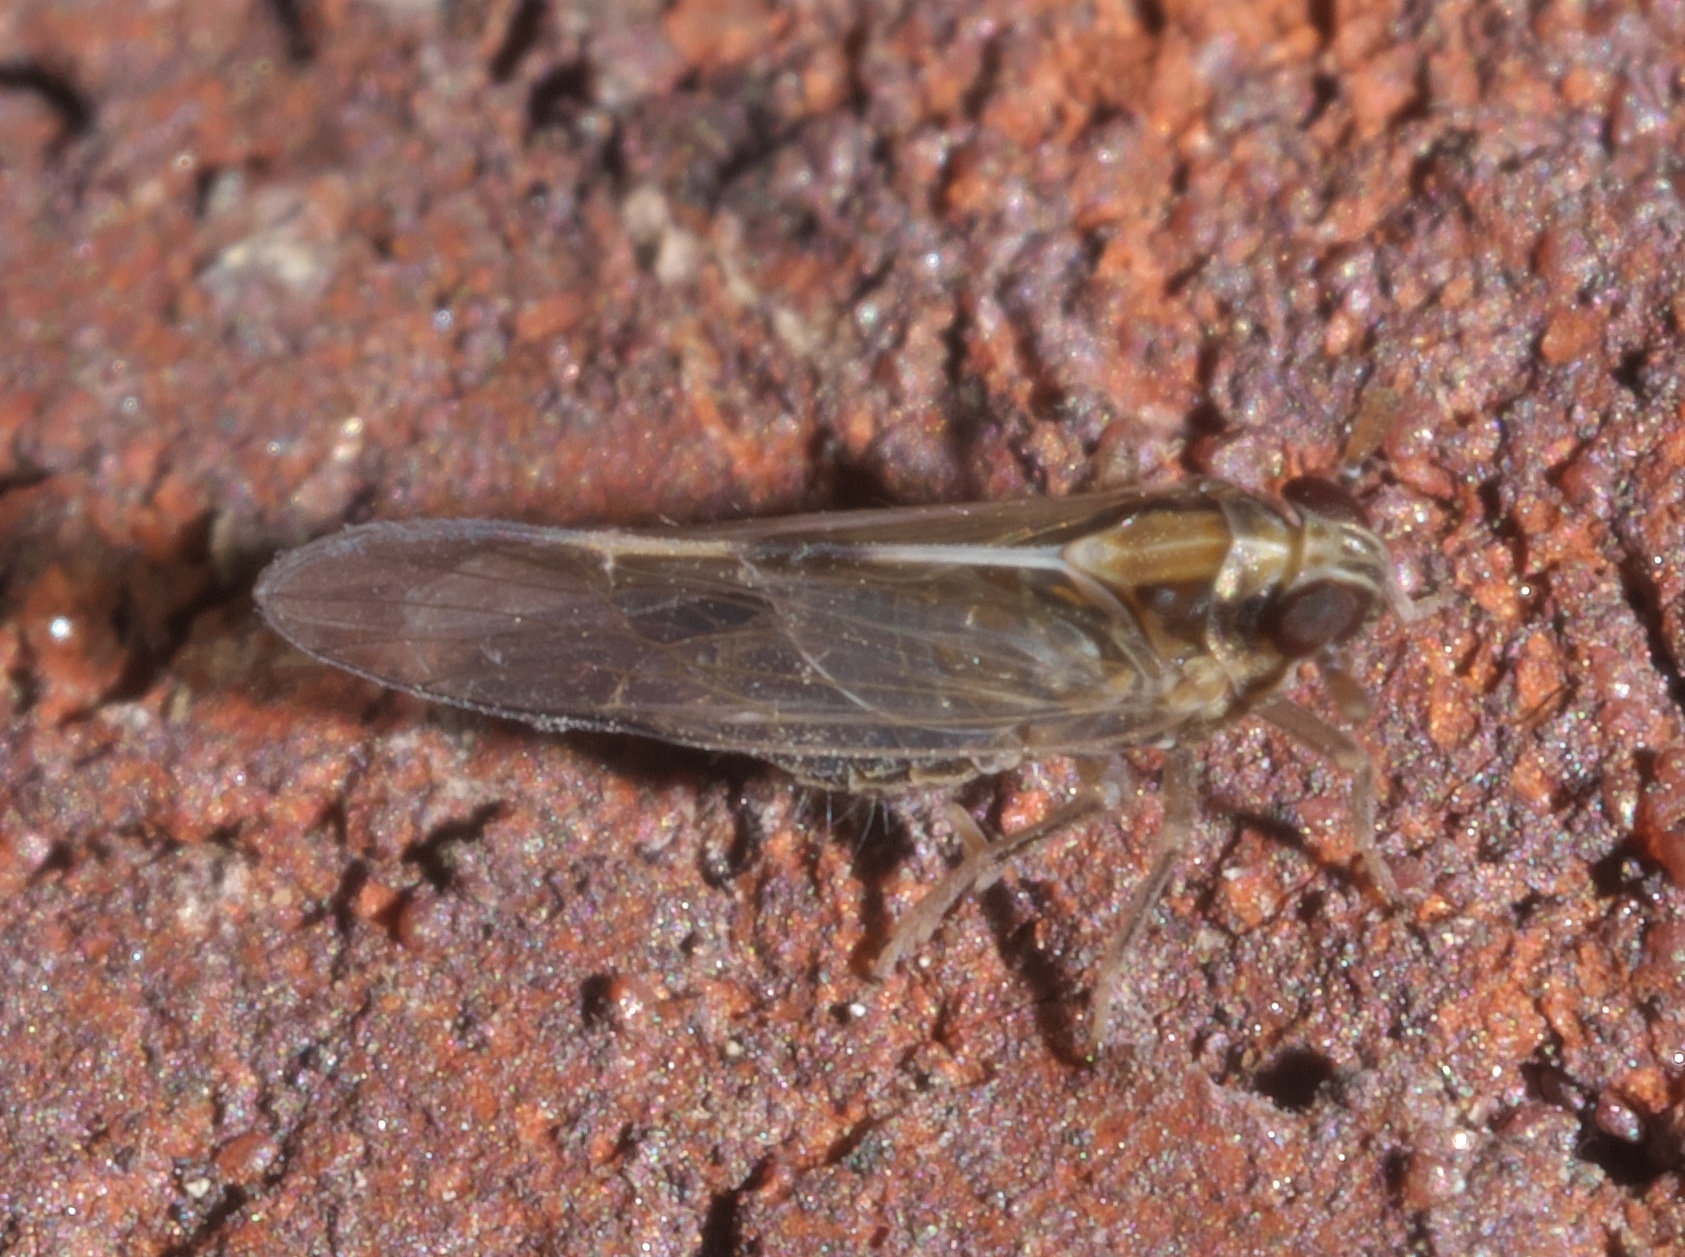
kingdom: Animalia
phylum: Arthropoda
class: Insecta
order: Hemiptera
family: Delphacidae
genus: Muellerianella
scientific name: Muellerianella laminalis
